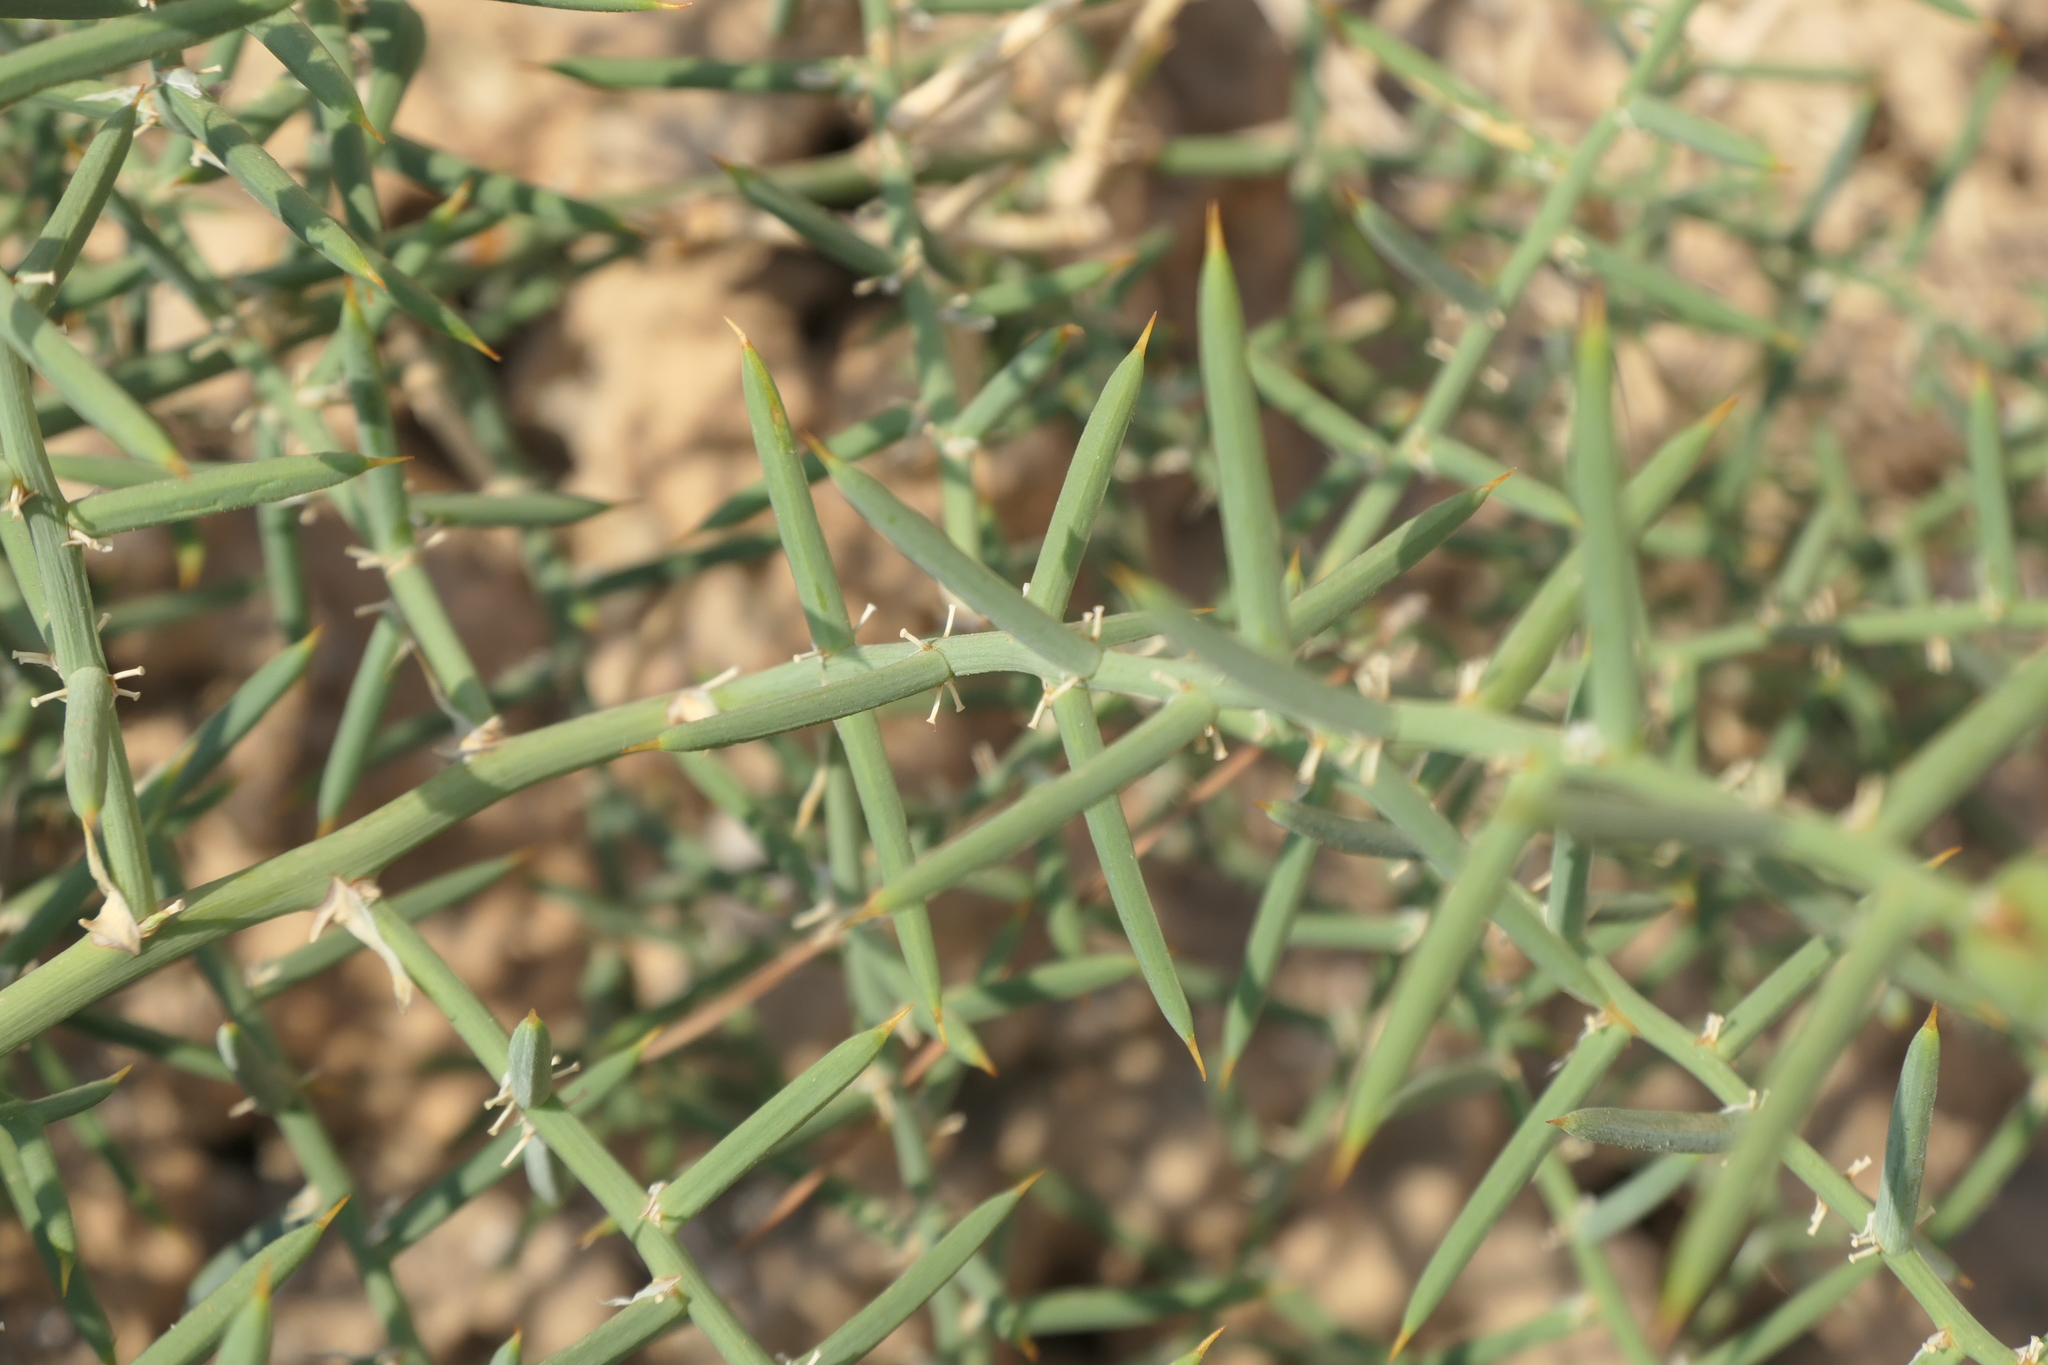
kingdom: Plantae
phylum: Tracheophyta
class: Liliopsida
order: Asparagales
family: Asparagaceae
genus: Asparagus
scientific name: Asparagus horridus
